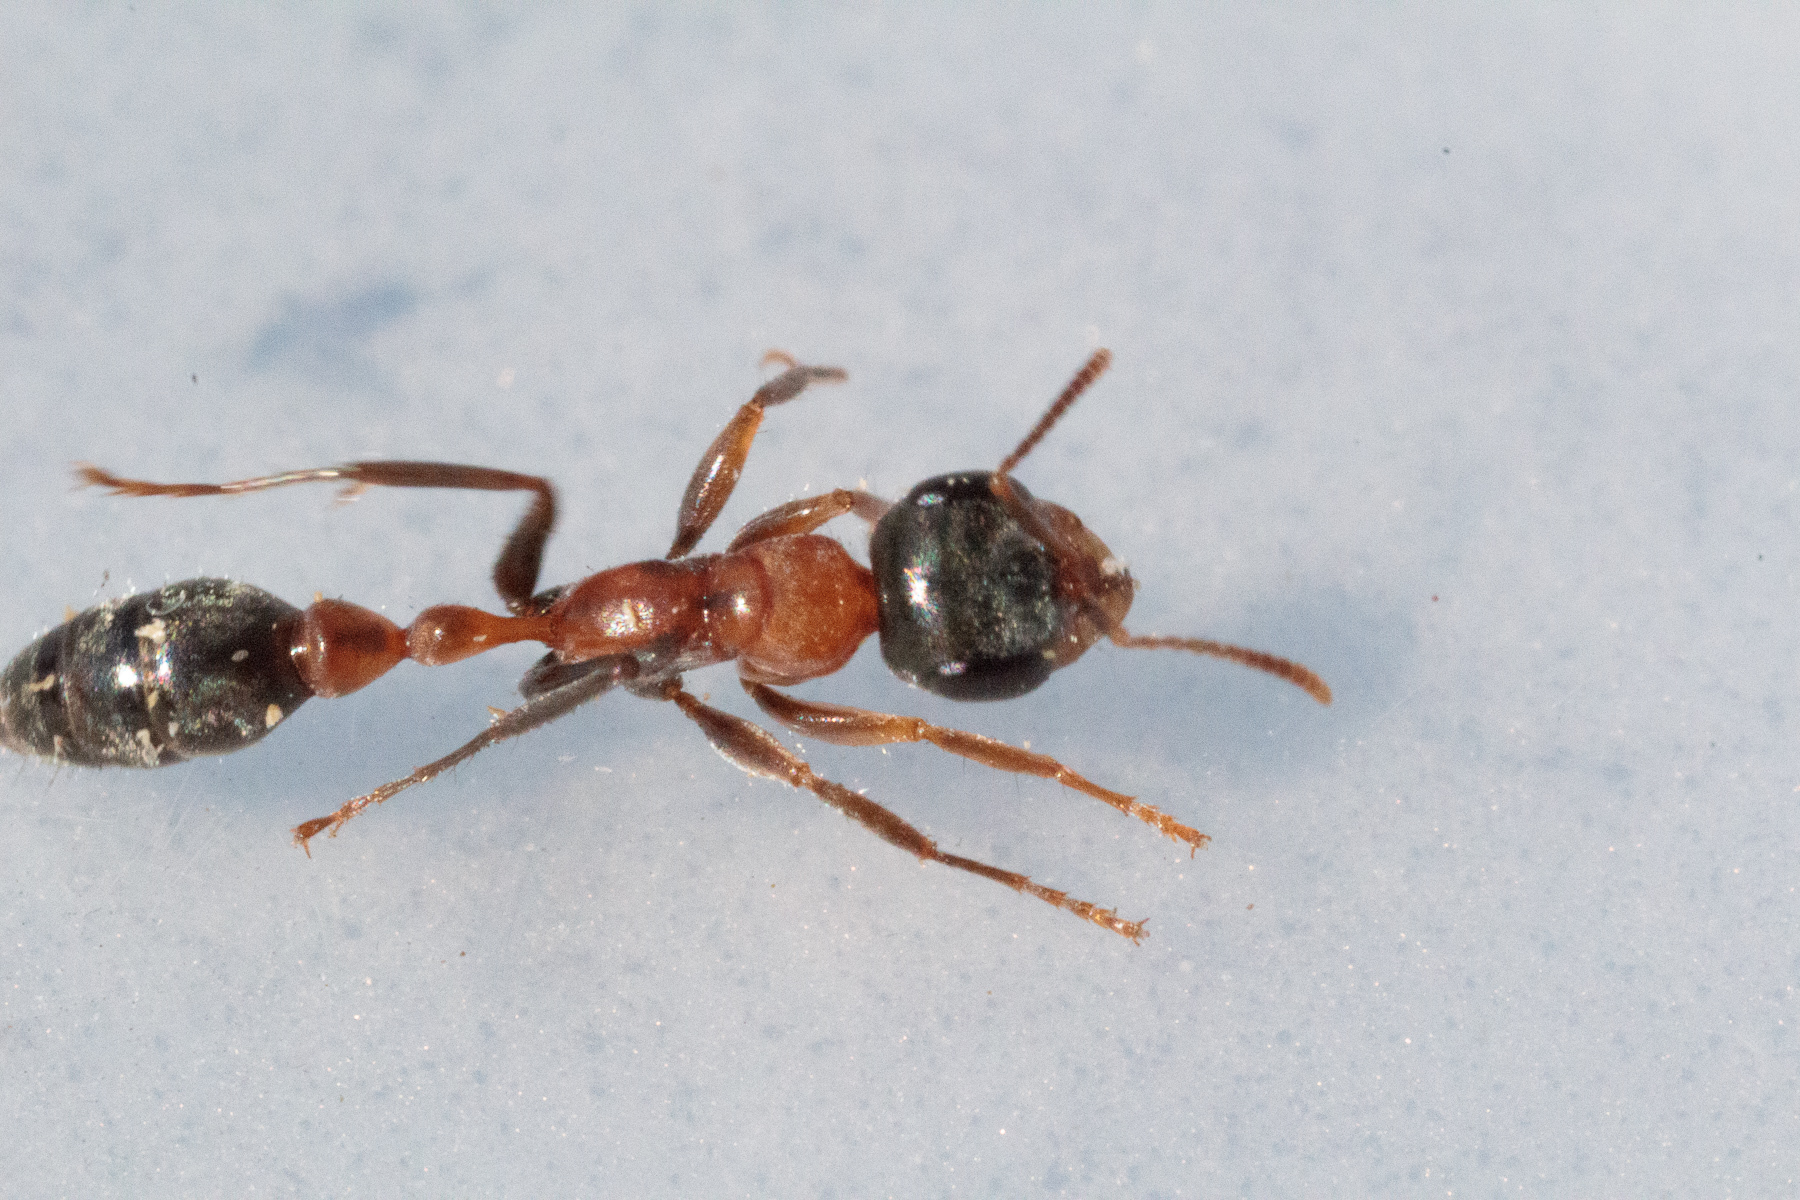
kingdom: Animalia
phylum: Arthropoda
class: Insecta
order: Hymenoptera
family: Formicidae
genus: Pseudomyrmex
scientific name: Pseudomyrmex gracilis
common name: Graceful twig ant
